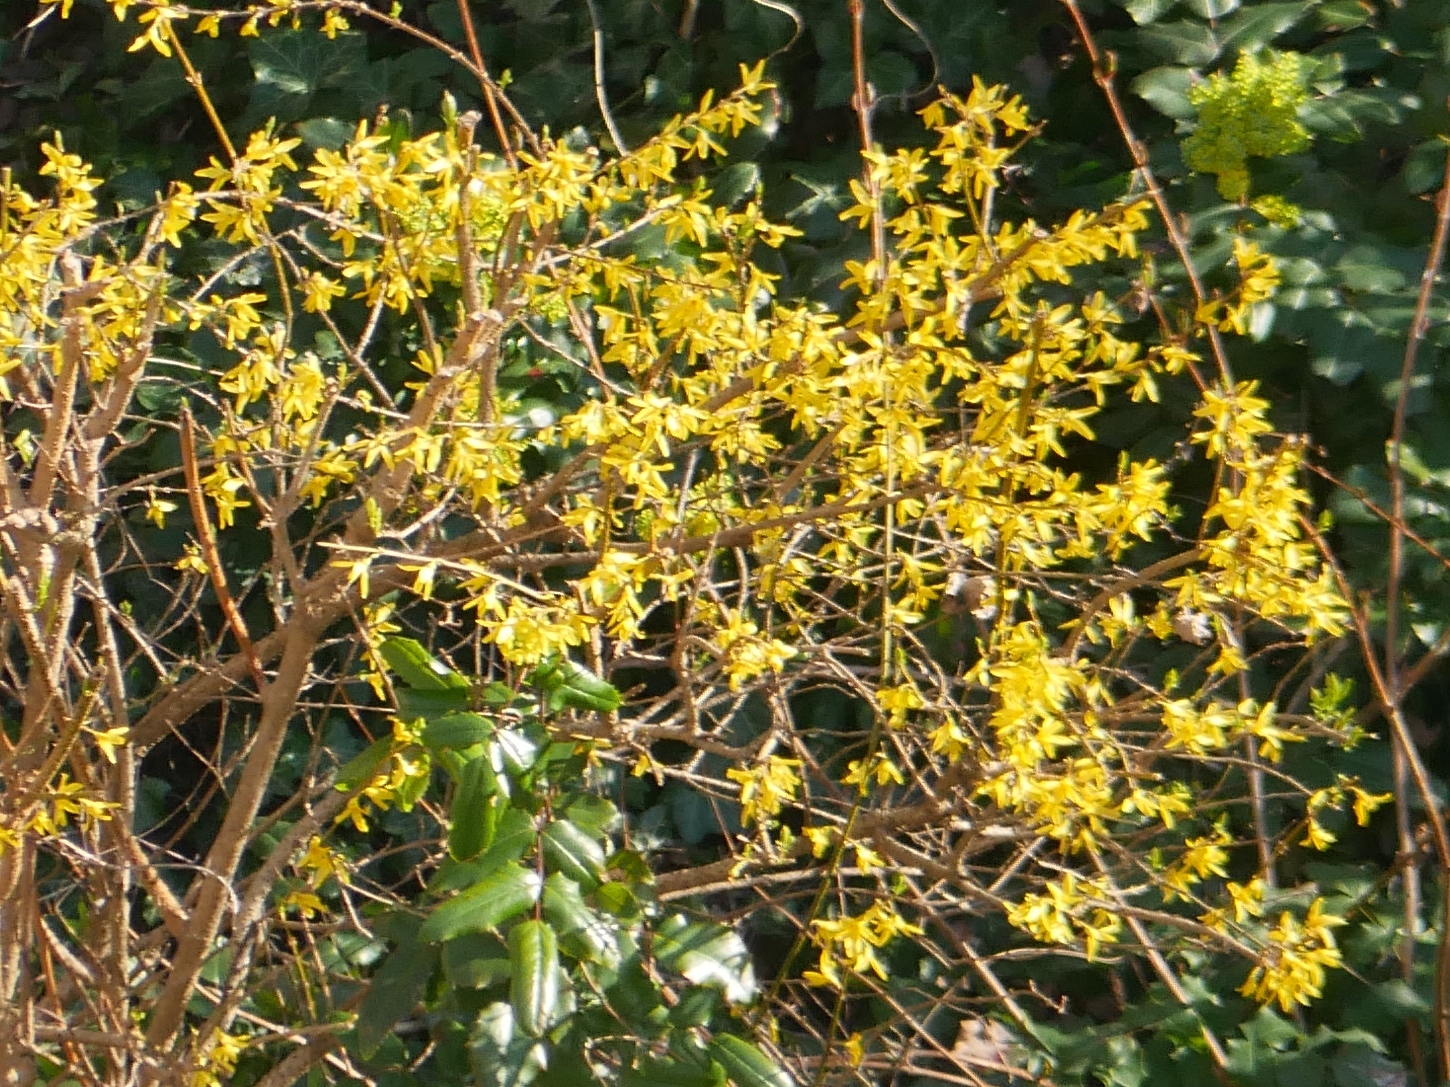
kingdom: Plantae
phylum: Tracheophyta
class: Magnoliopsida
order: Lamiales
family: Oleaceae
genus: Forsythia
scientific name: Forsythia intermedia
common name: Forsythia
